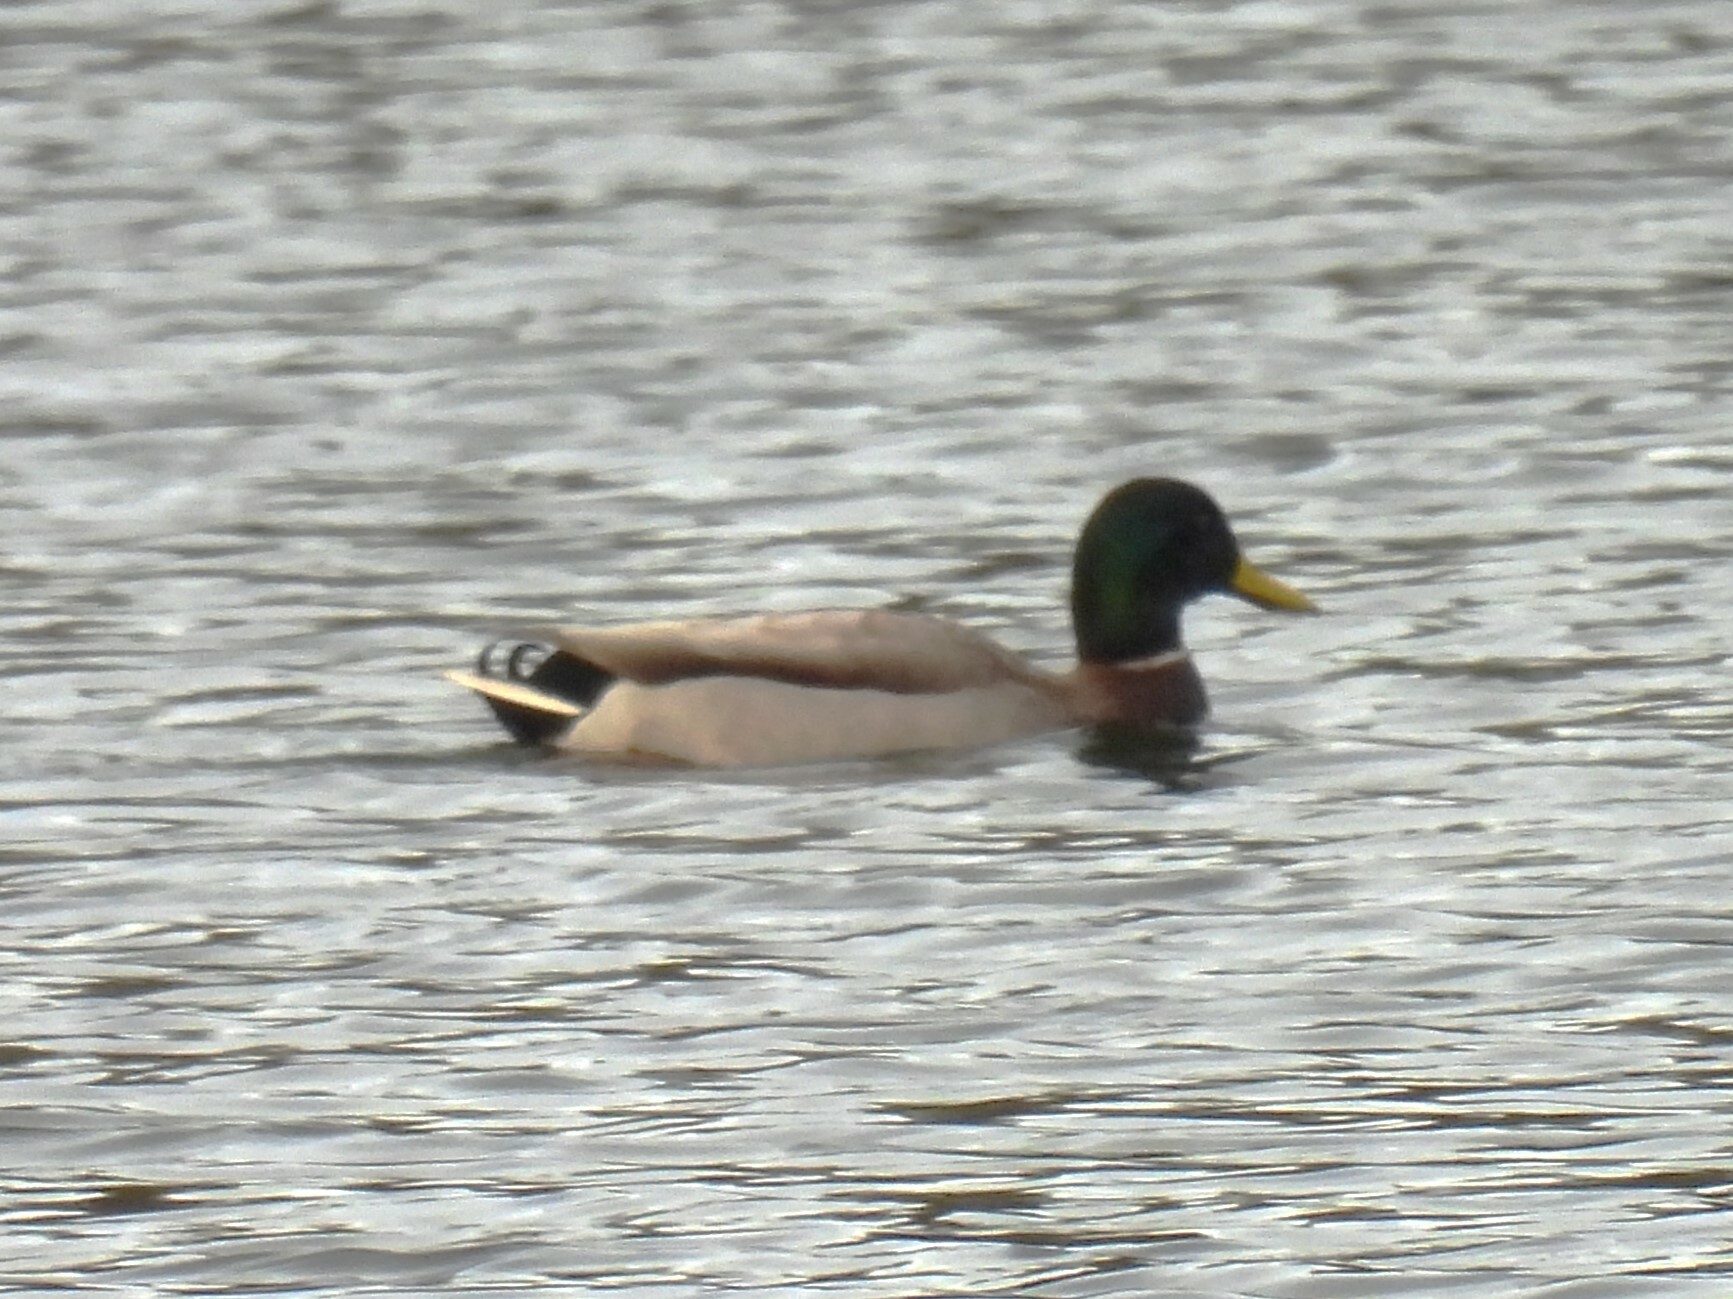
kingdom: Animalia
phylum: Chordata
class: Aves
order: Anseriformes
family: Anatidae
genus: Anas
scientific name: Anas platyrhynchos
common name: Mallard
